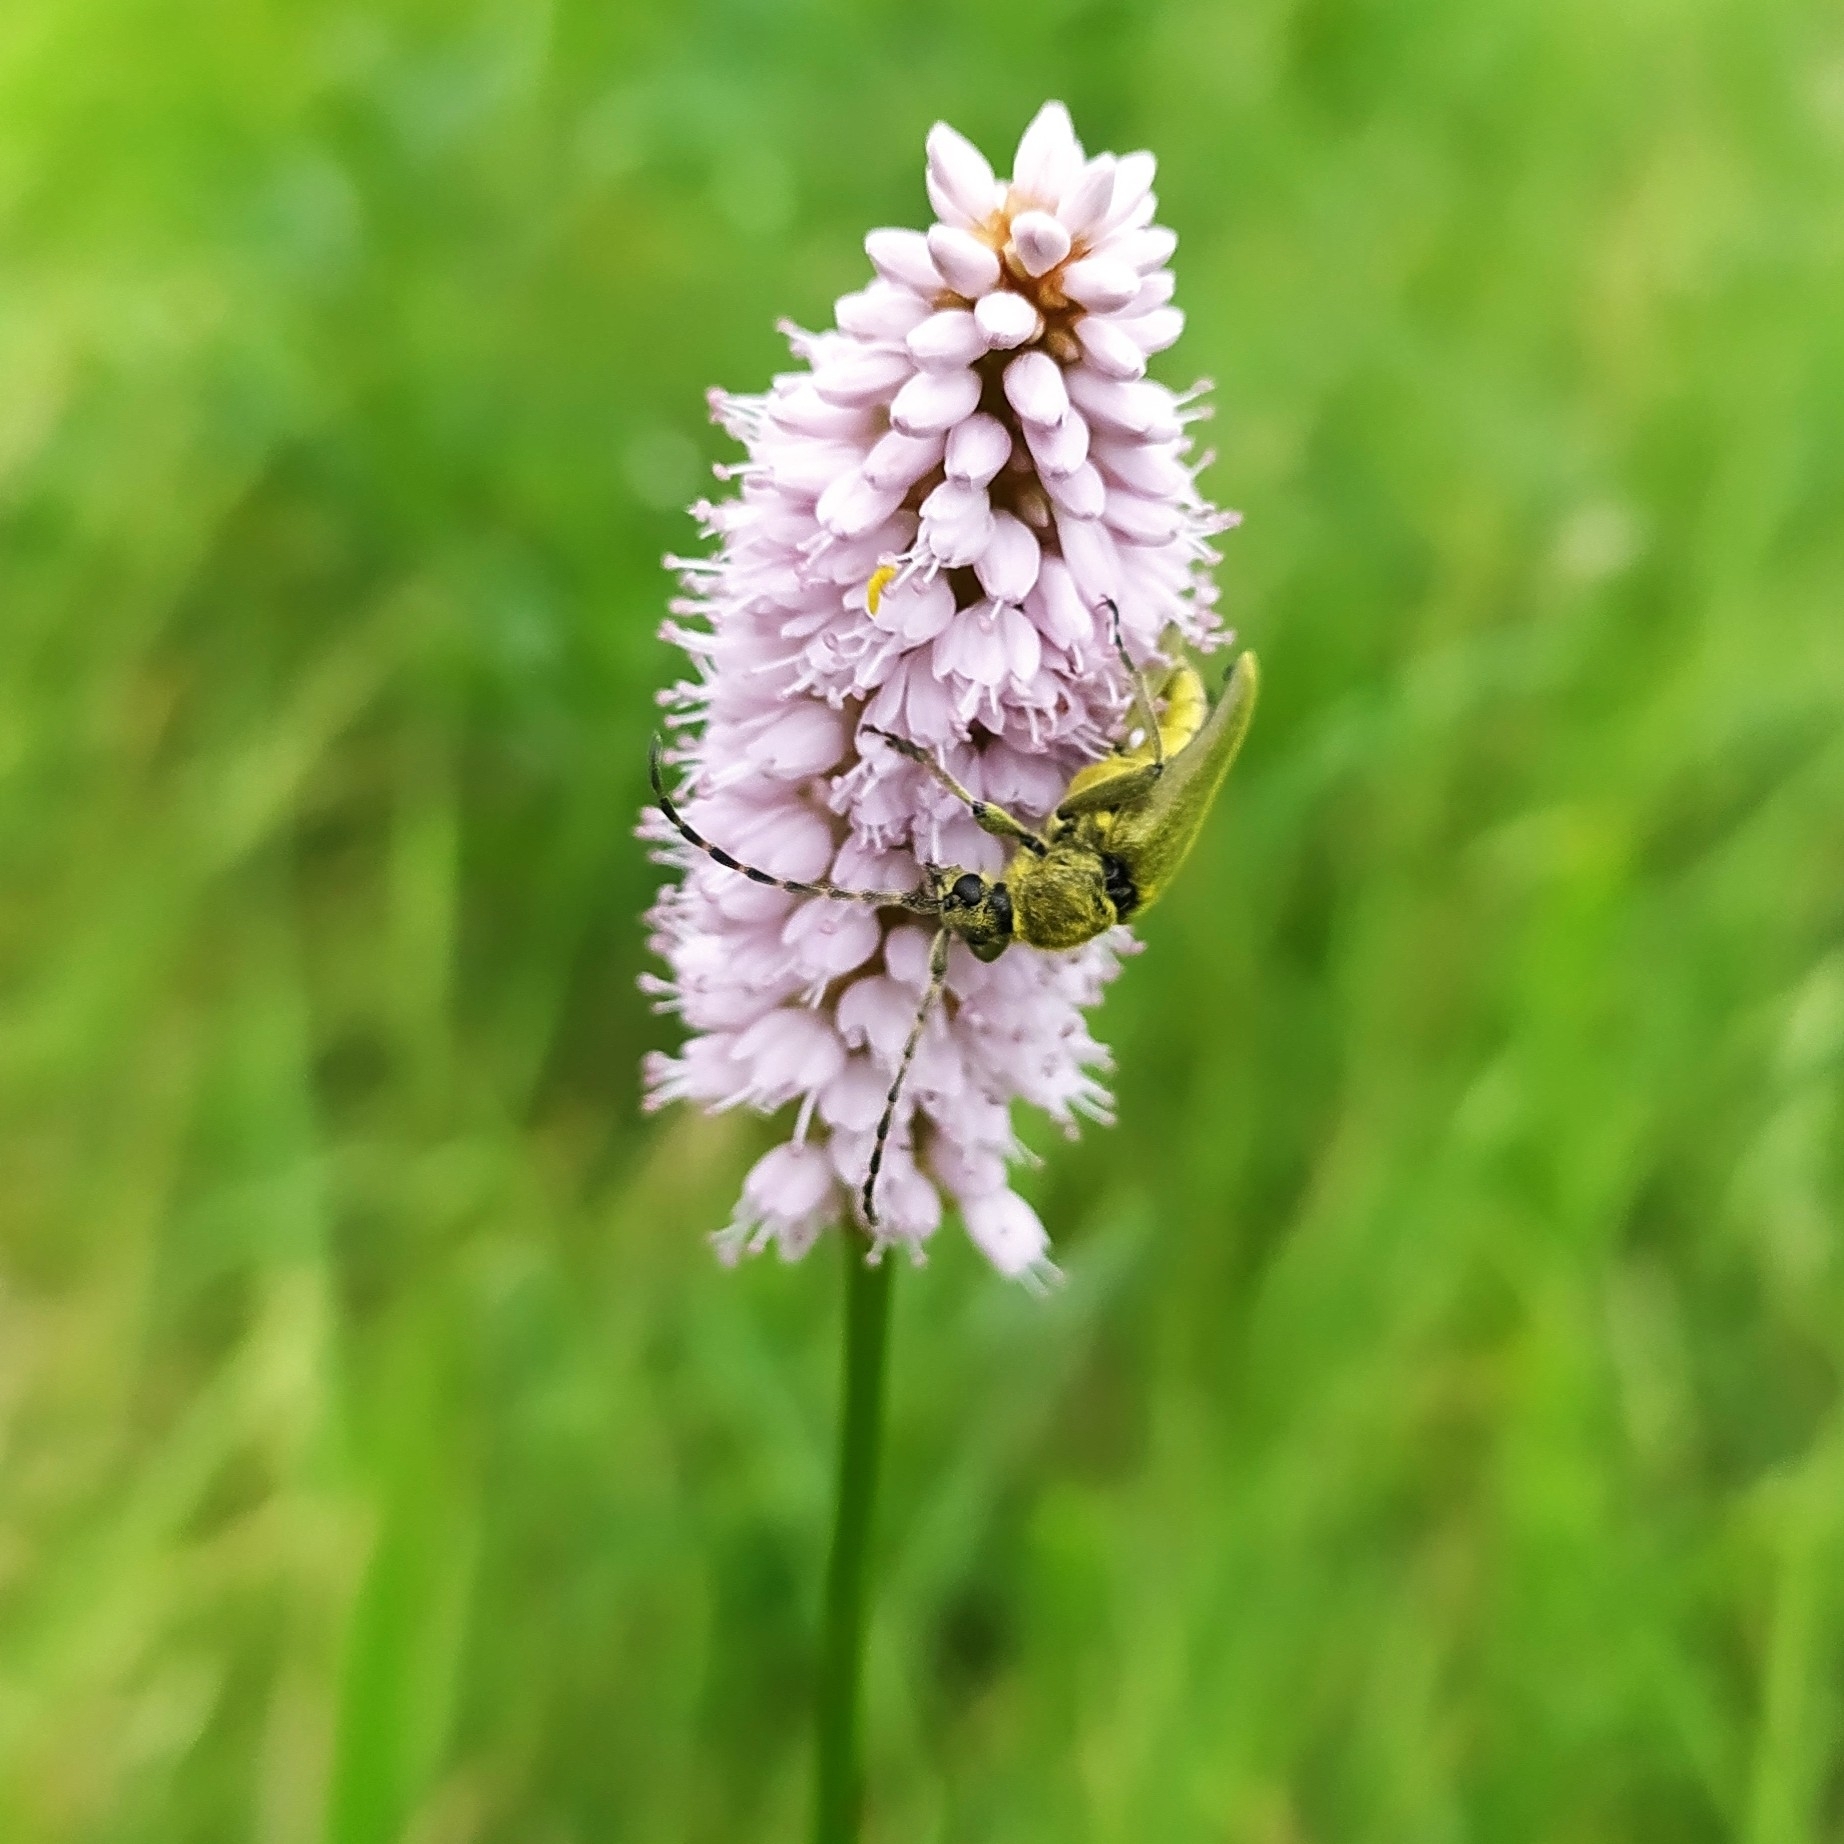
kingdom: Animalia
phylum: Arthropoda
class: Insecta
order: Coleoptera
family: Cerambycidae
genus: Lepturobosca
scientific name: Lepturobosca virens
